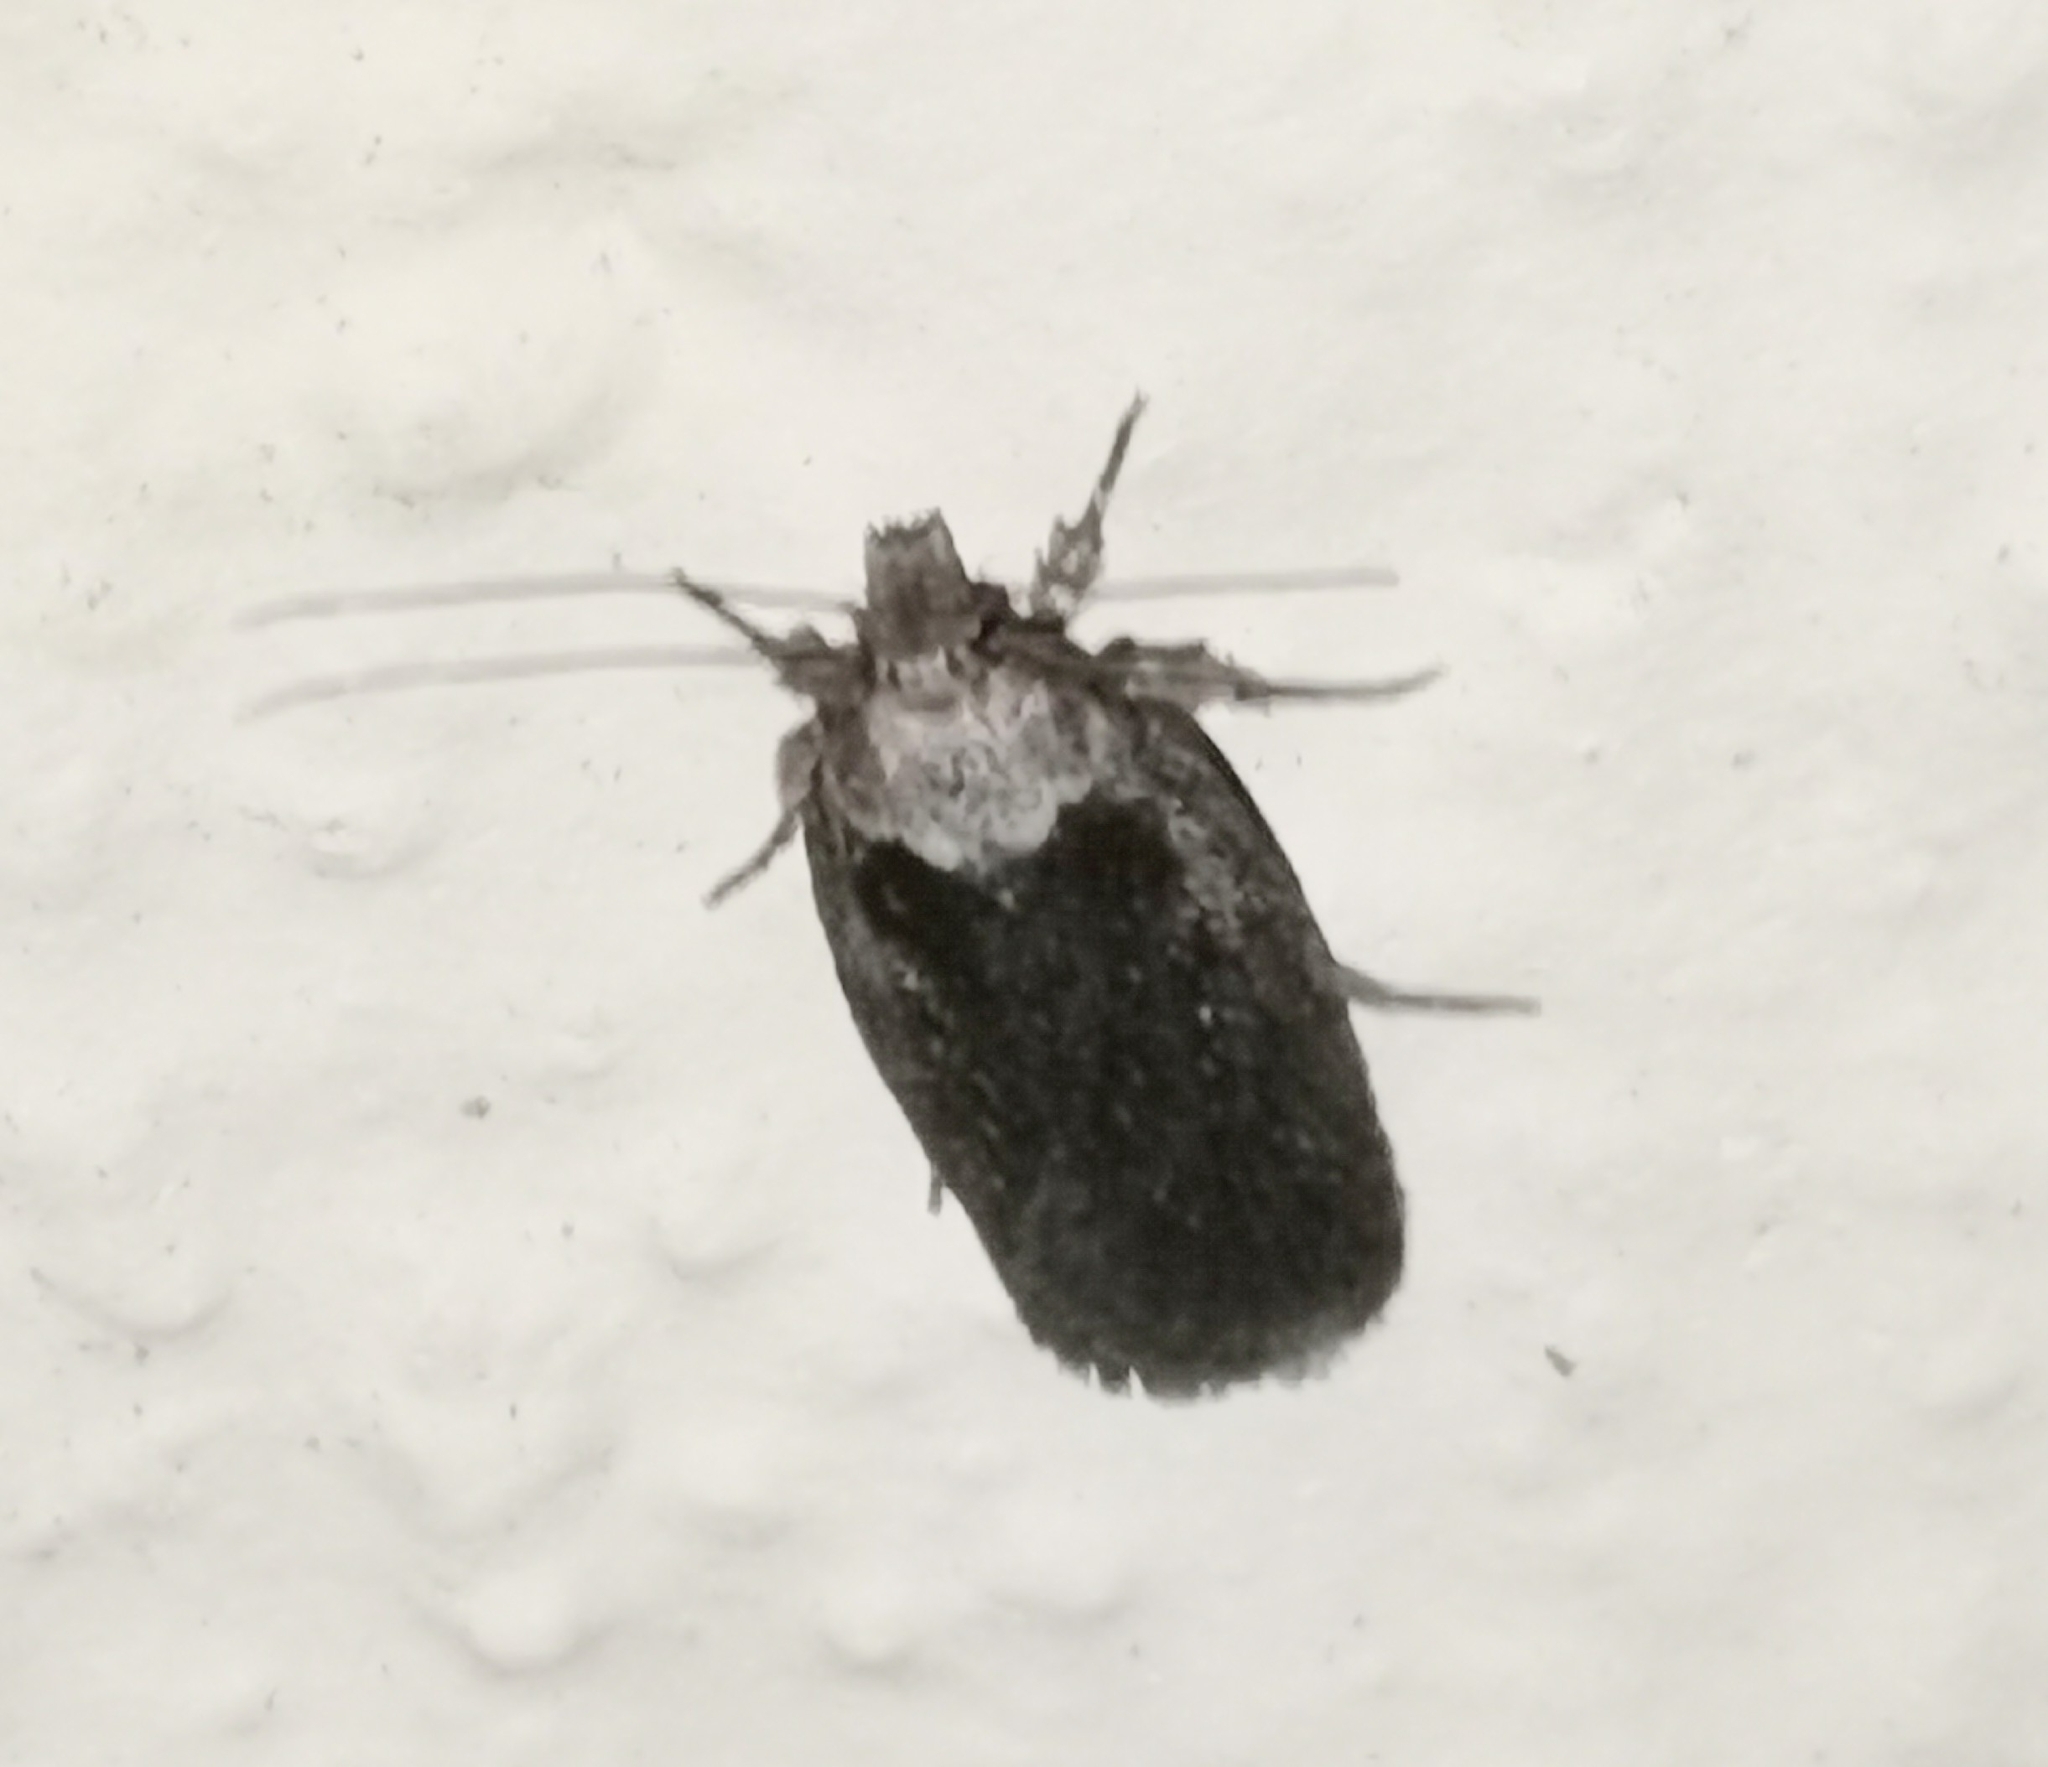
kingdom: Animalia
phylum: Arthropoda
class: Insecta
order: Lepidoptera
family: Depressariidae
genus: Exaeretia
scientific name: Exaeretia ciniflonella
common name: Scotch flat-body
